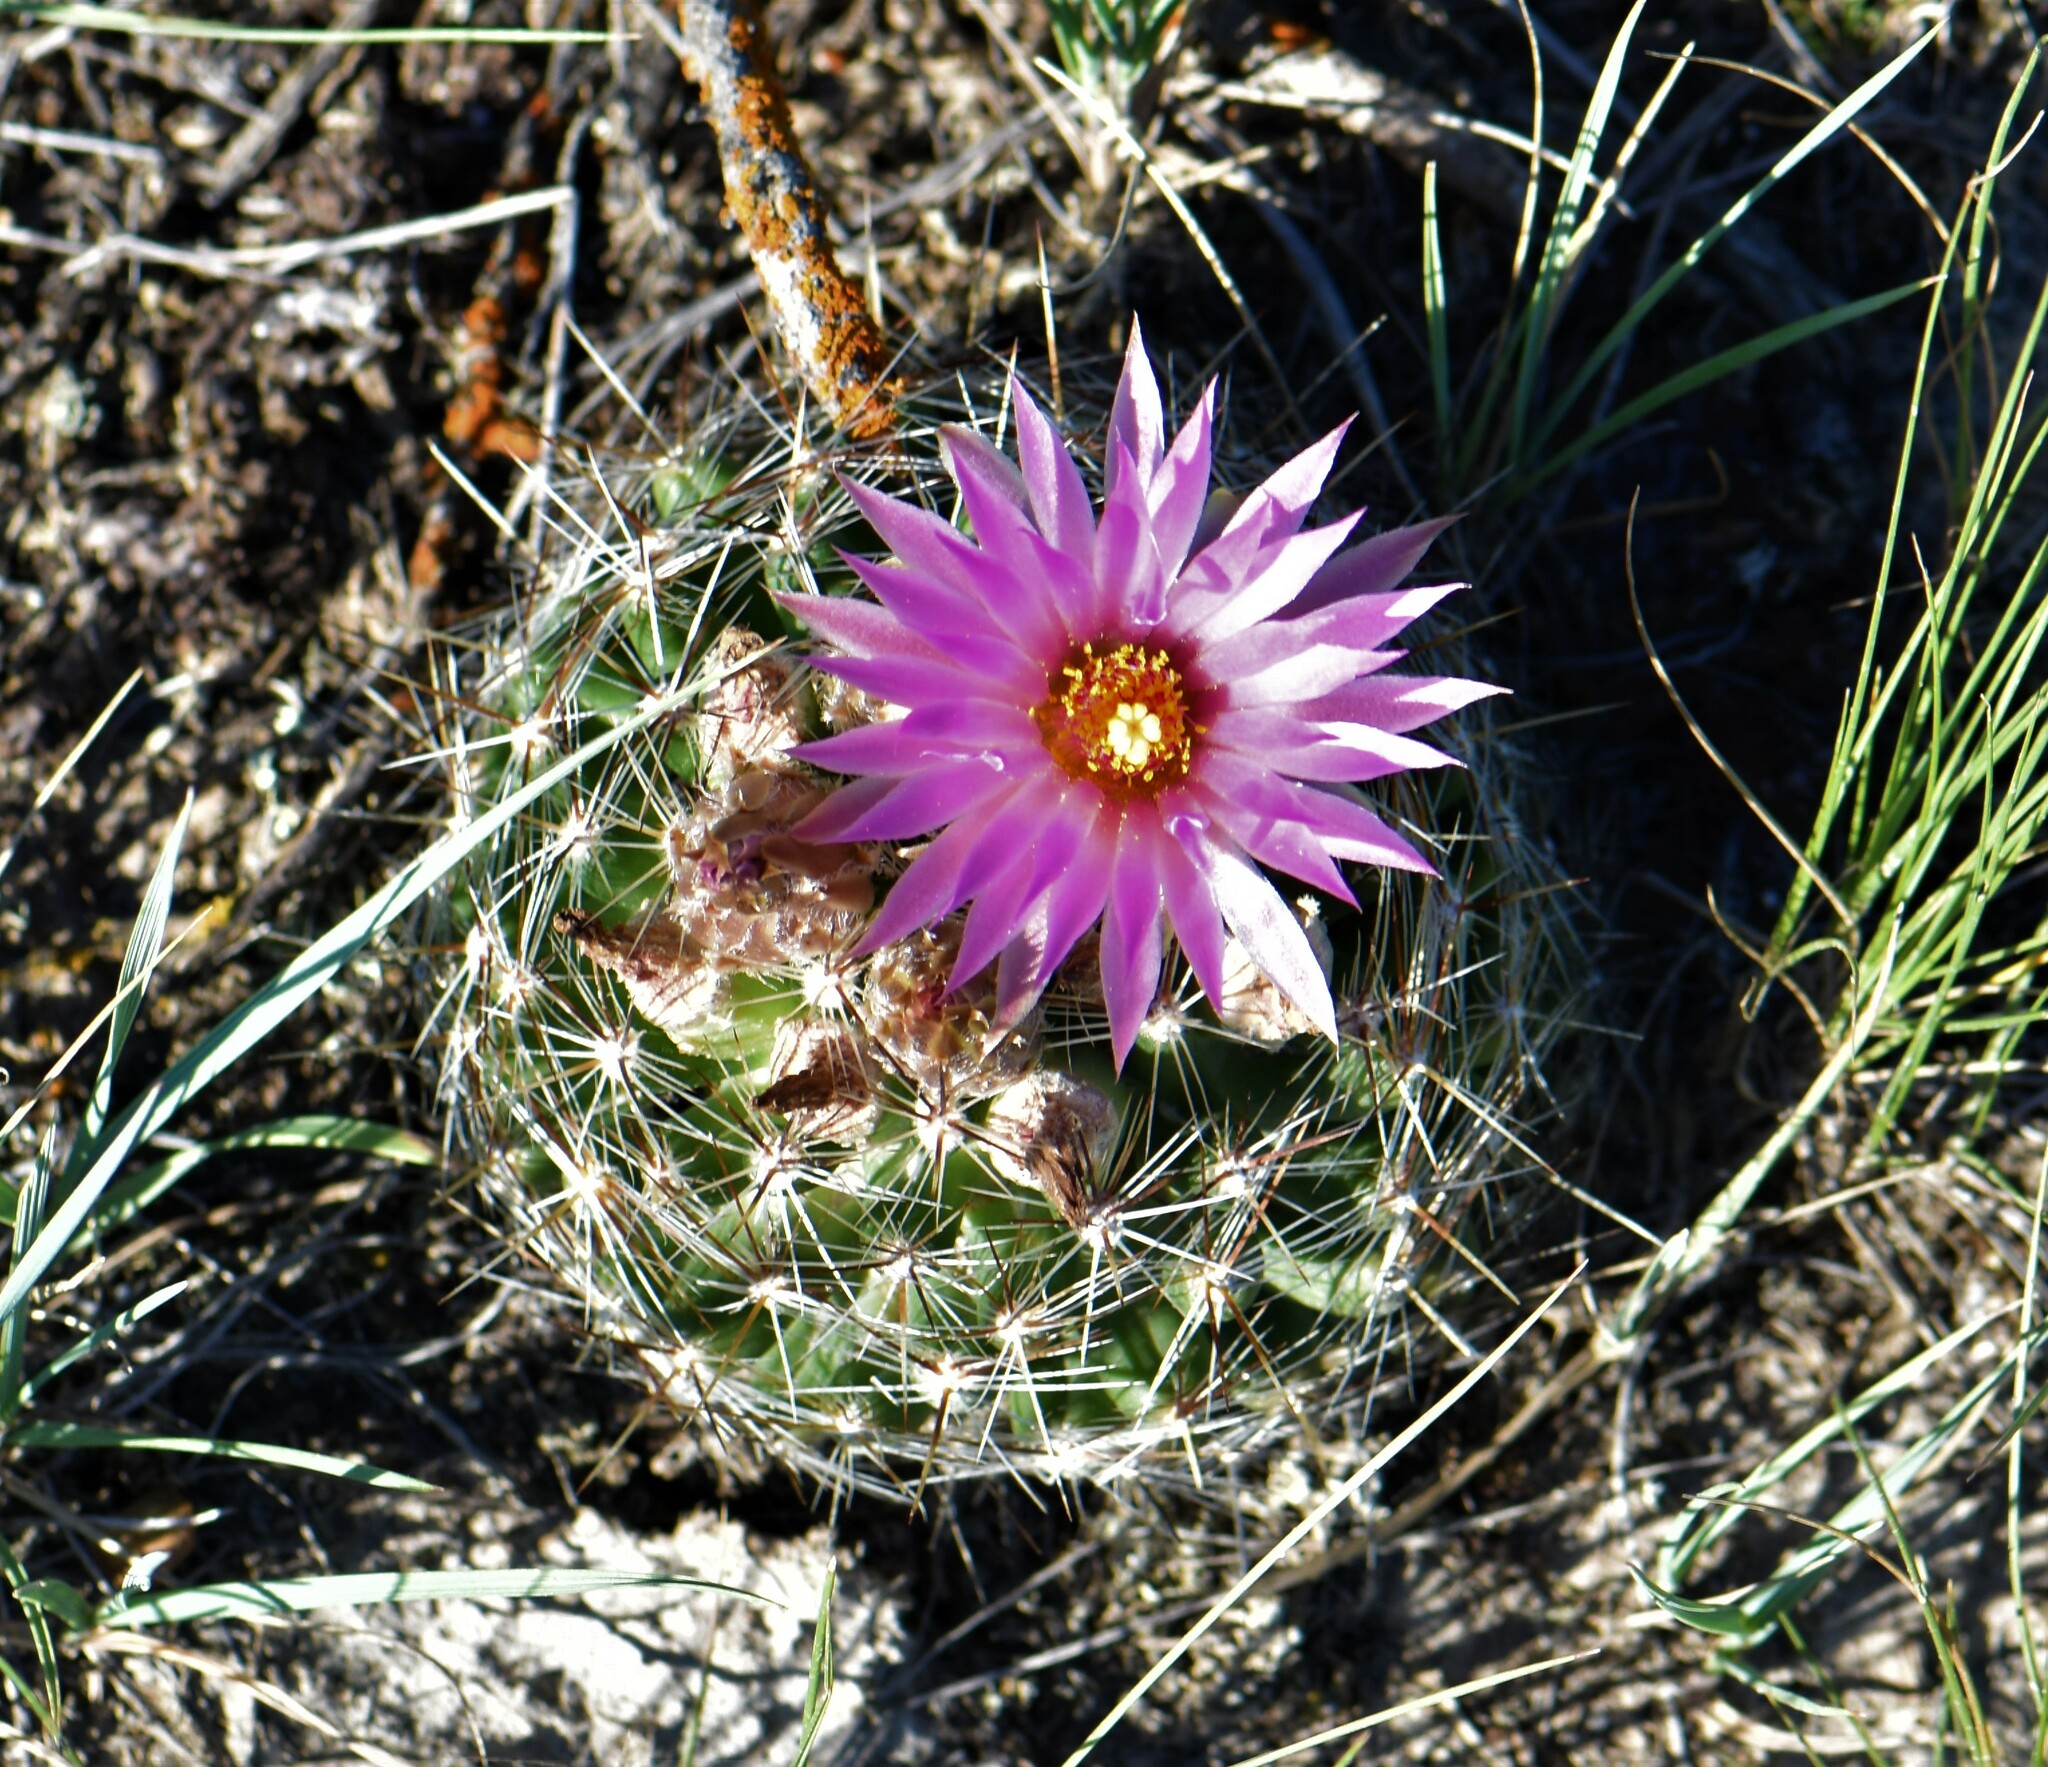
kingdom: Plantae
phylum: Tracheophyta
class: Magnoliopsida
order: Caryophyllales
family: Cactaceae
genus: Pelecyphora
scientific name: Pelecyphora vivipara
